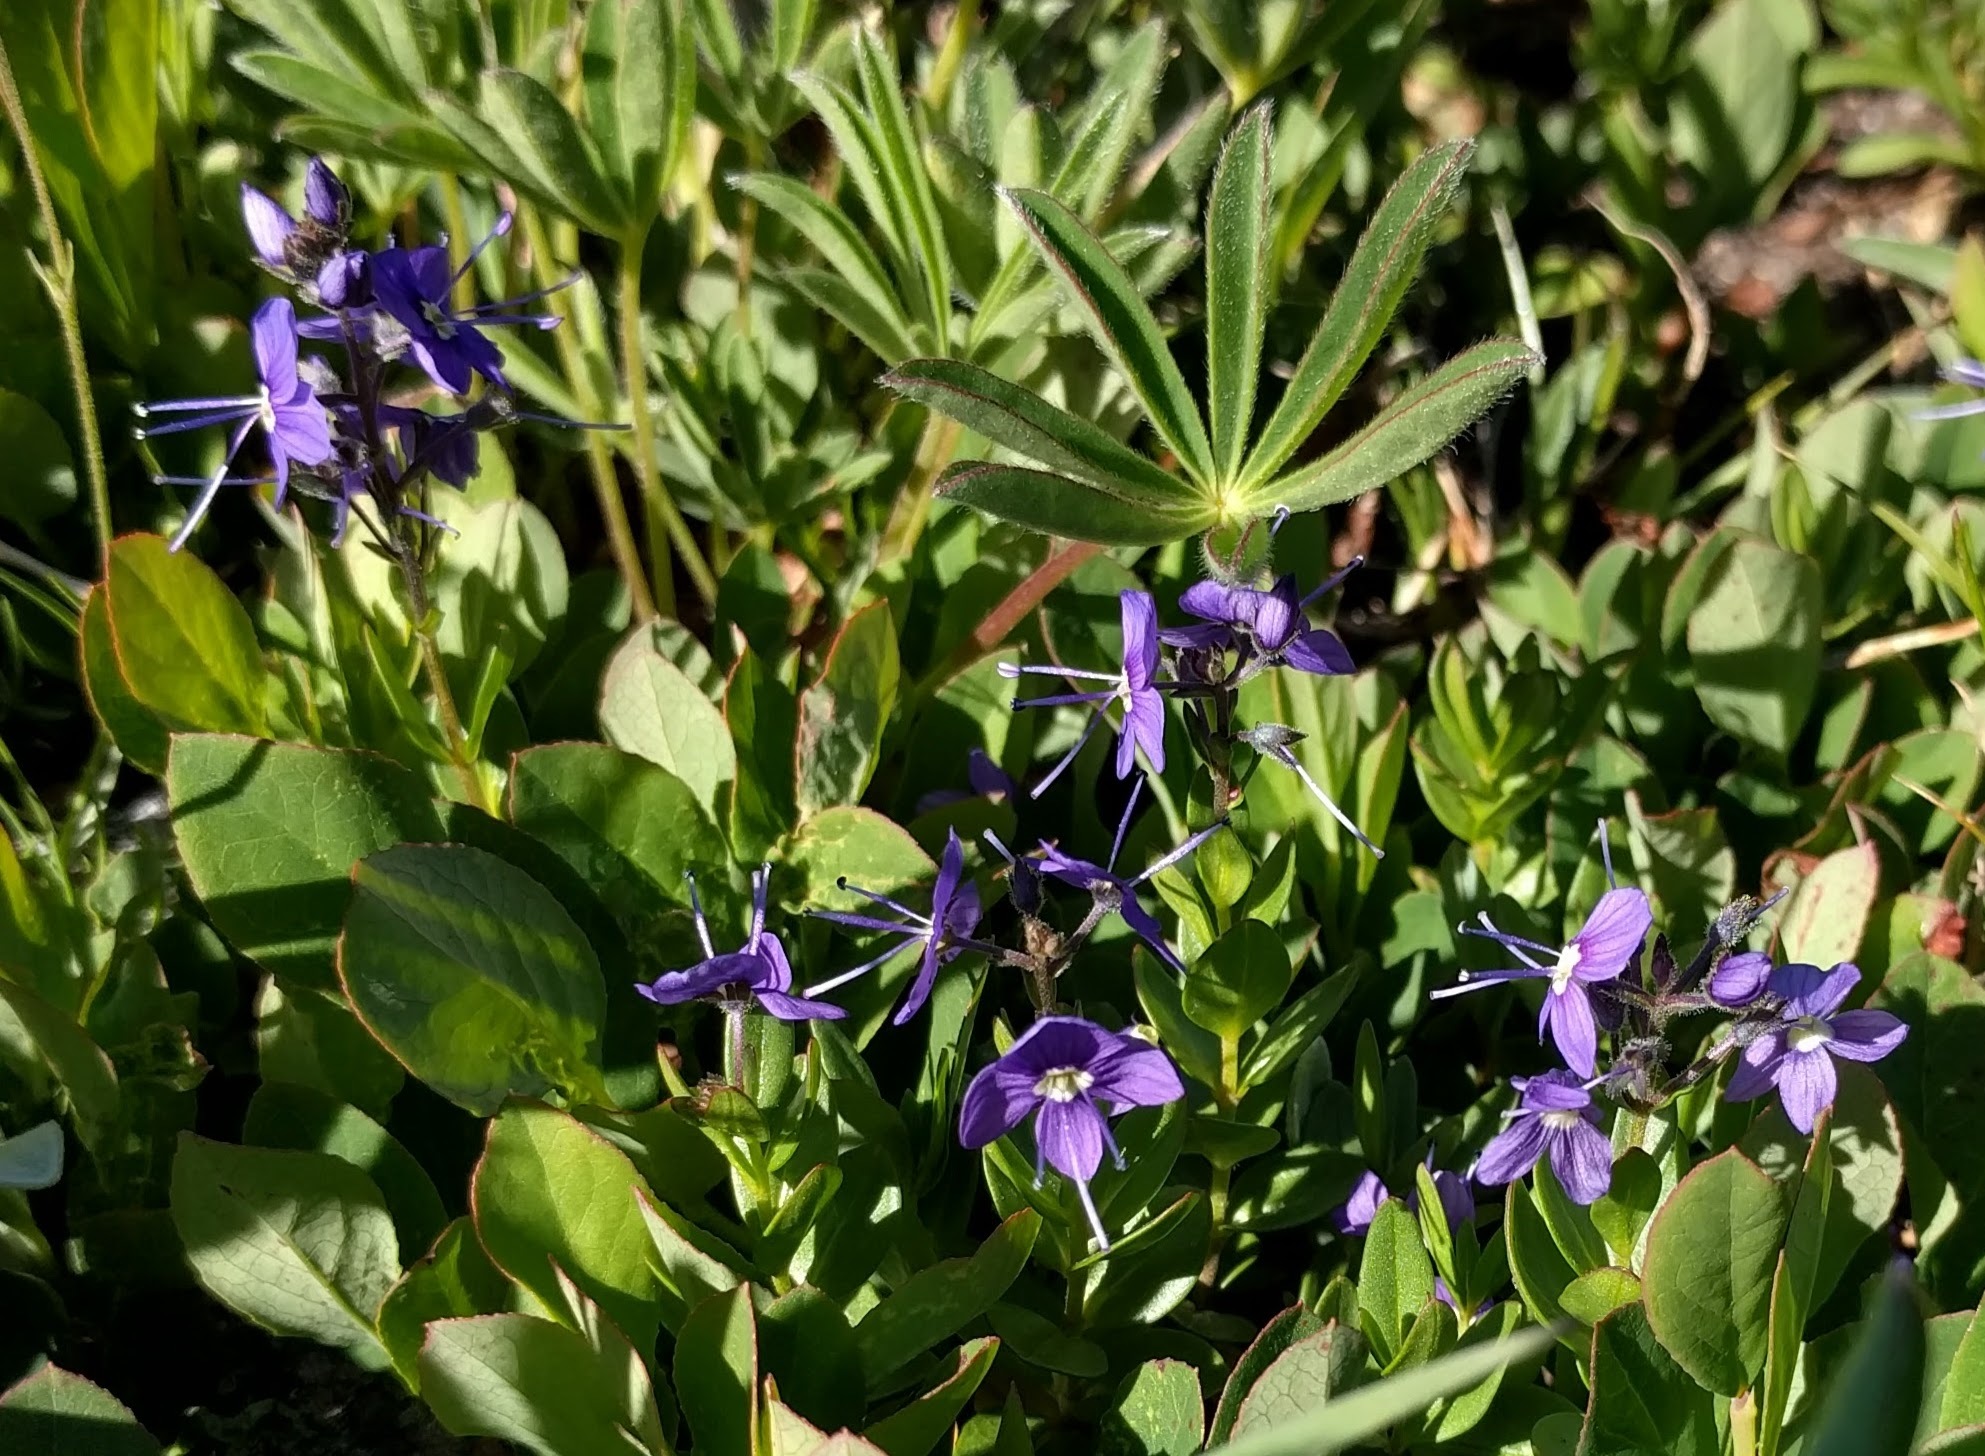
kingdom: Plantae
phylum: Tracheophyta
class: Magnoliopsida
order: Lamiales
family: Plantaginaceae
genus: Veronica
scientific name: Veronica cusickii
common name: Cusick's speedwell
